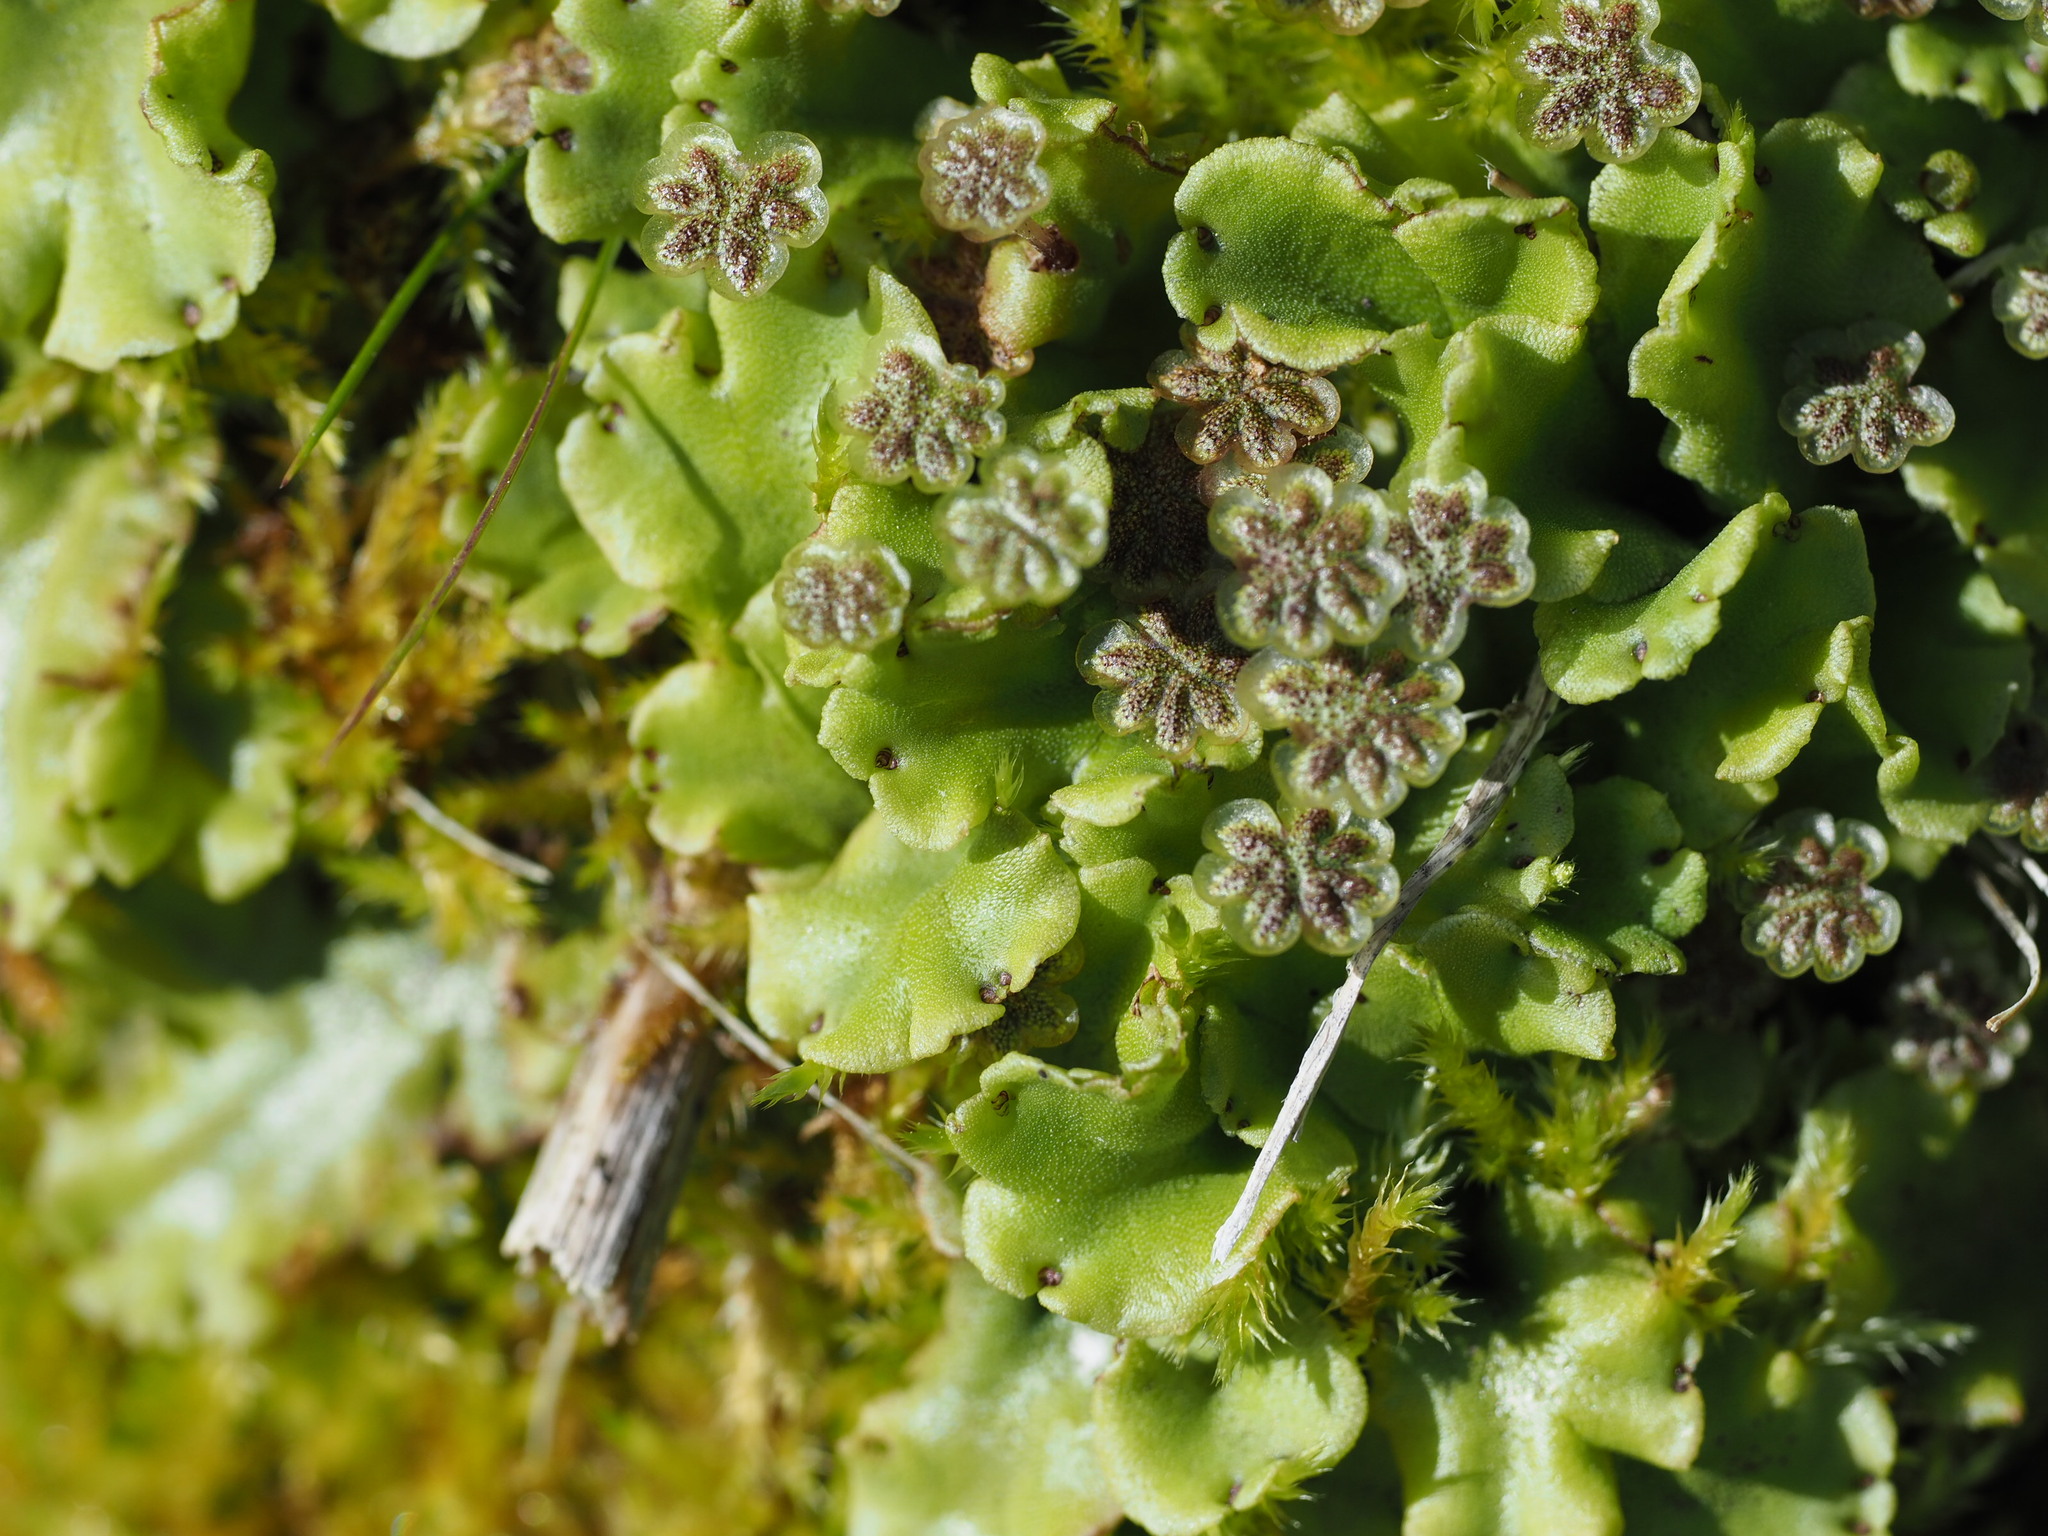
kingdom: Plantae
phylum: Marchantiophyta
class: Marchantiopsida
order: Marchantiales
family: Marchantiaceae
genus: Marchantia
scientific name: Marchantia polymorpha
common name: Common liverwort
